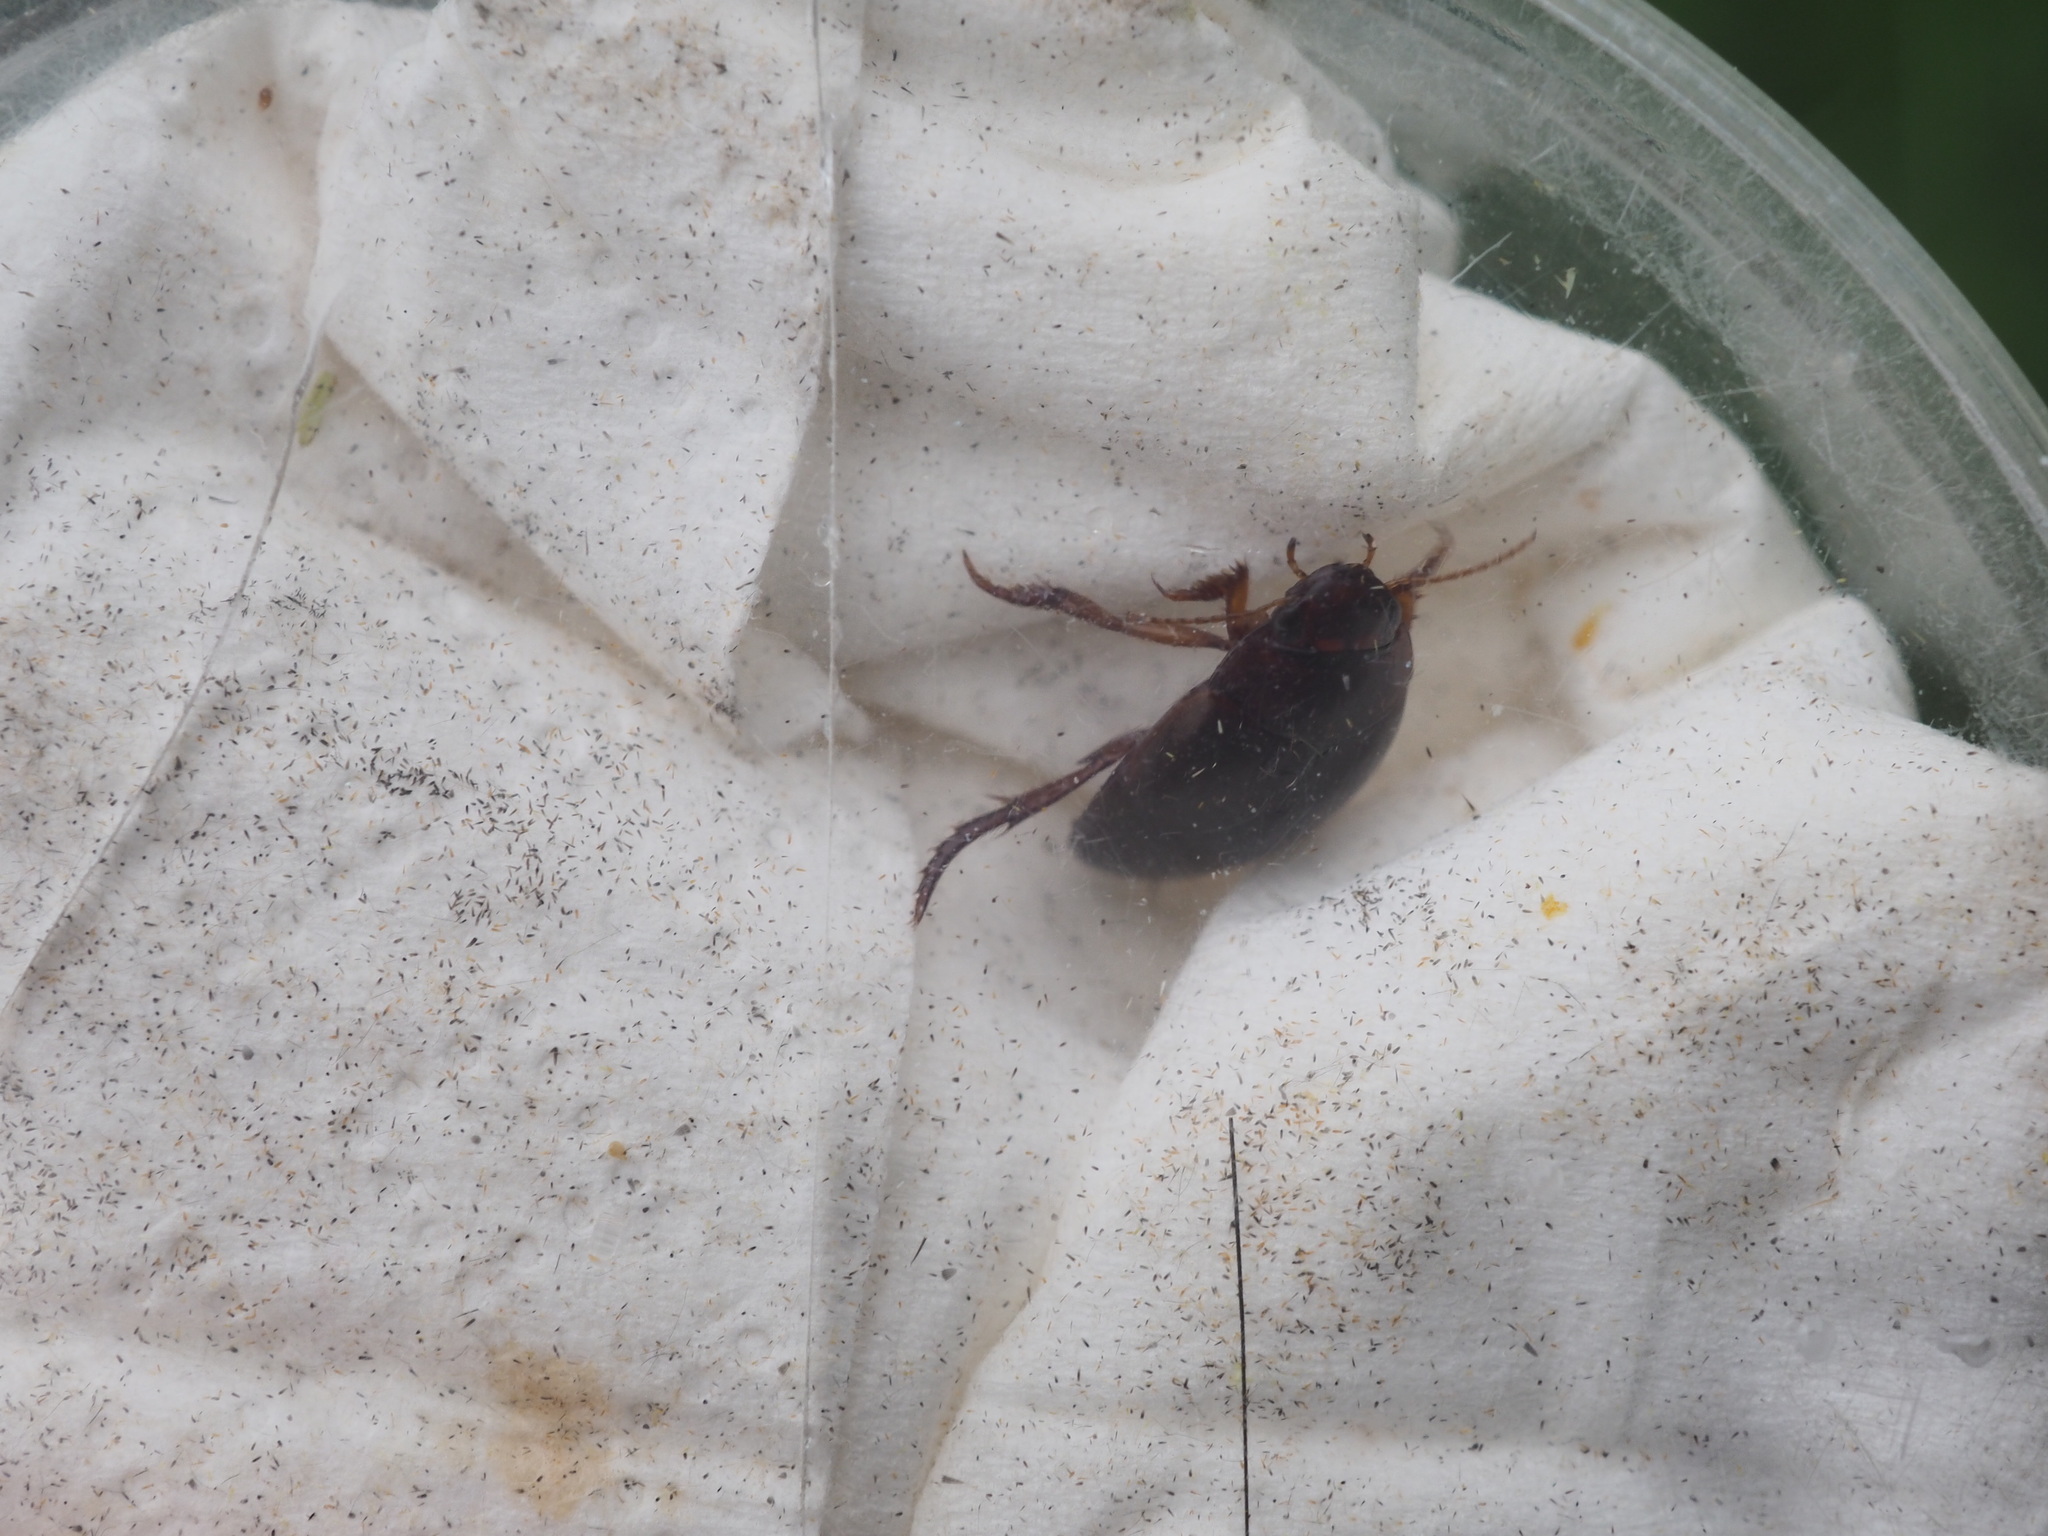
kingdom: Animalia
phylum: Arthropoda
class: Insecta
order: Coleoptera
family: Dytiscidae
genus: Ilybius
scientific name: Ilybius fuliginosus
